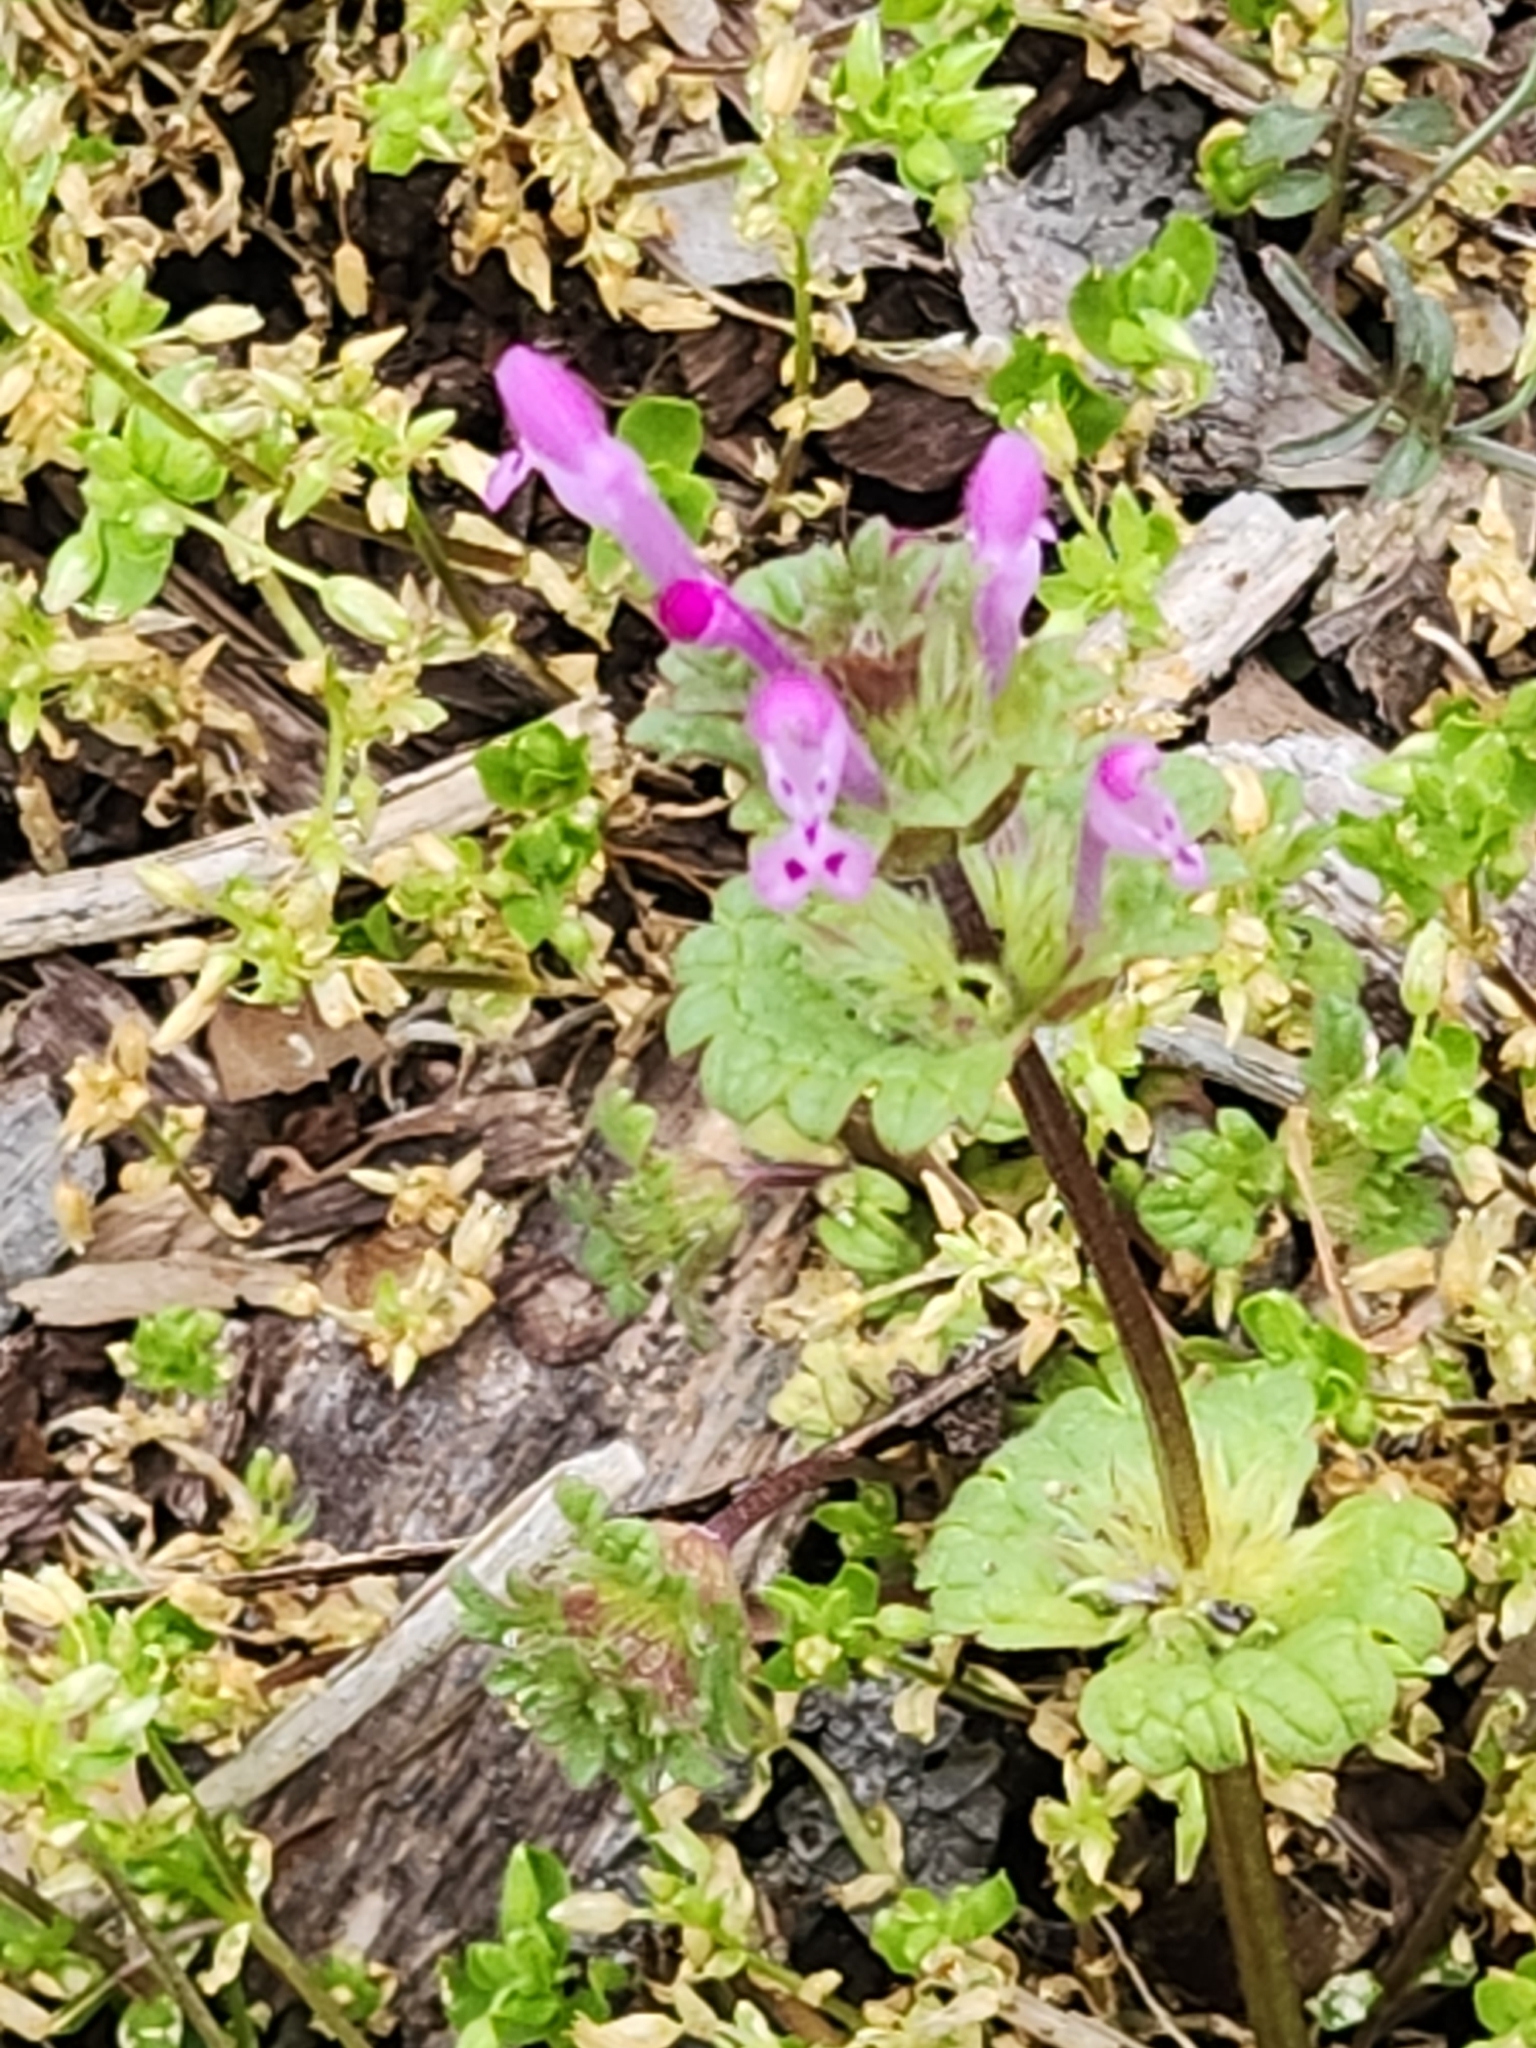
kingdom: Plantae
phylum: Tracheophyta
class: Magnoliopsida
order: Lamiales
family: Lamiaceae
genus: Lamium
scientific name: Lamium amplexicaule
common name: Henbit dead-nettle
